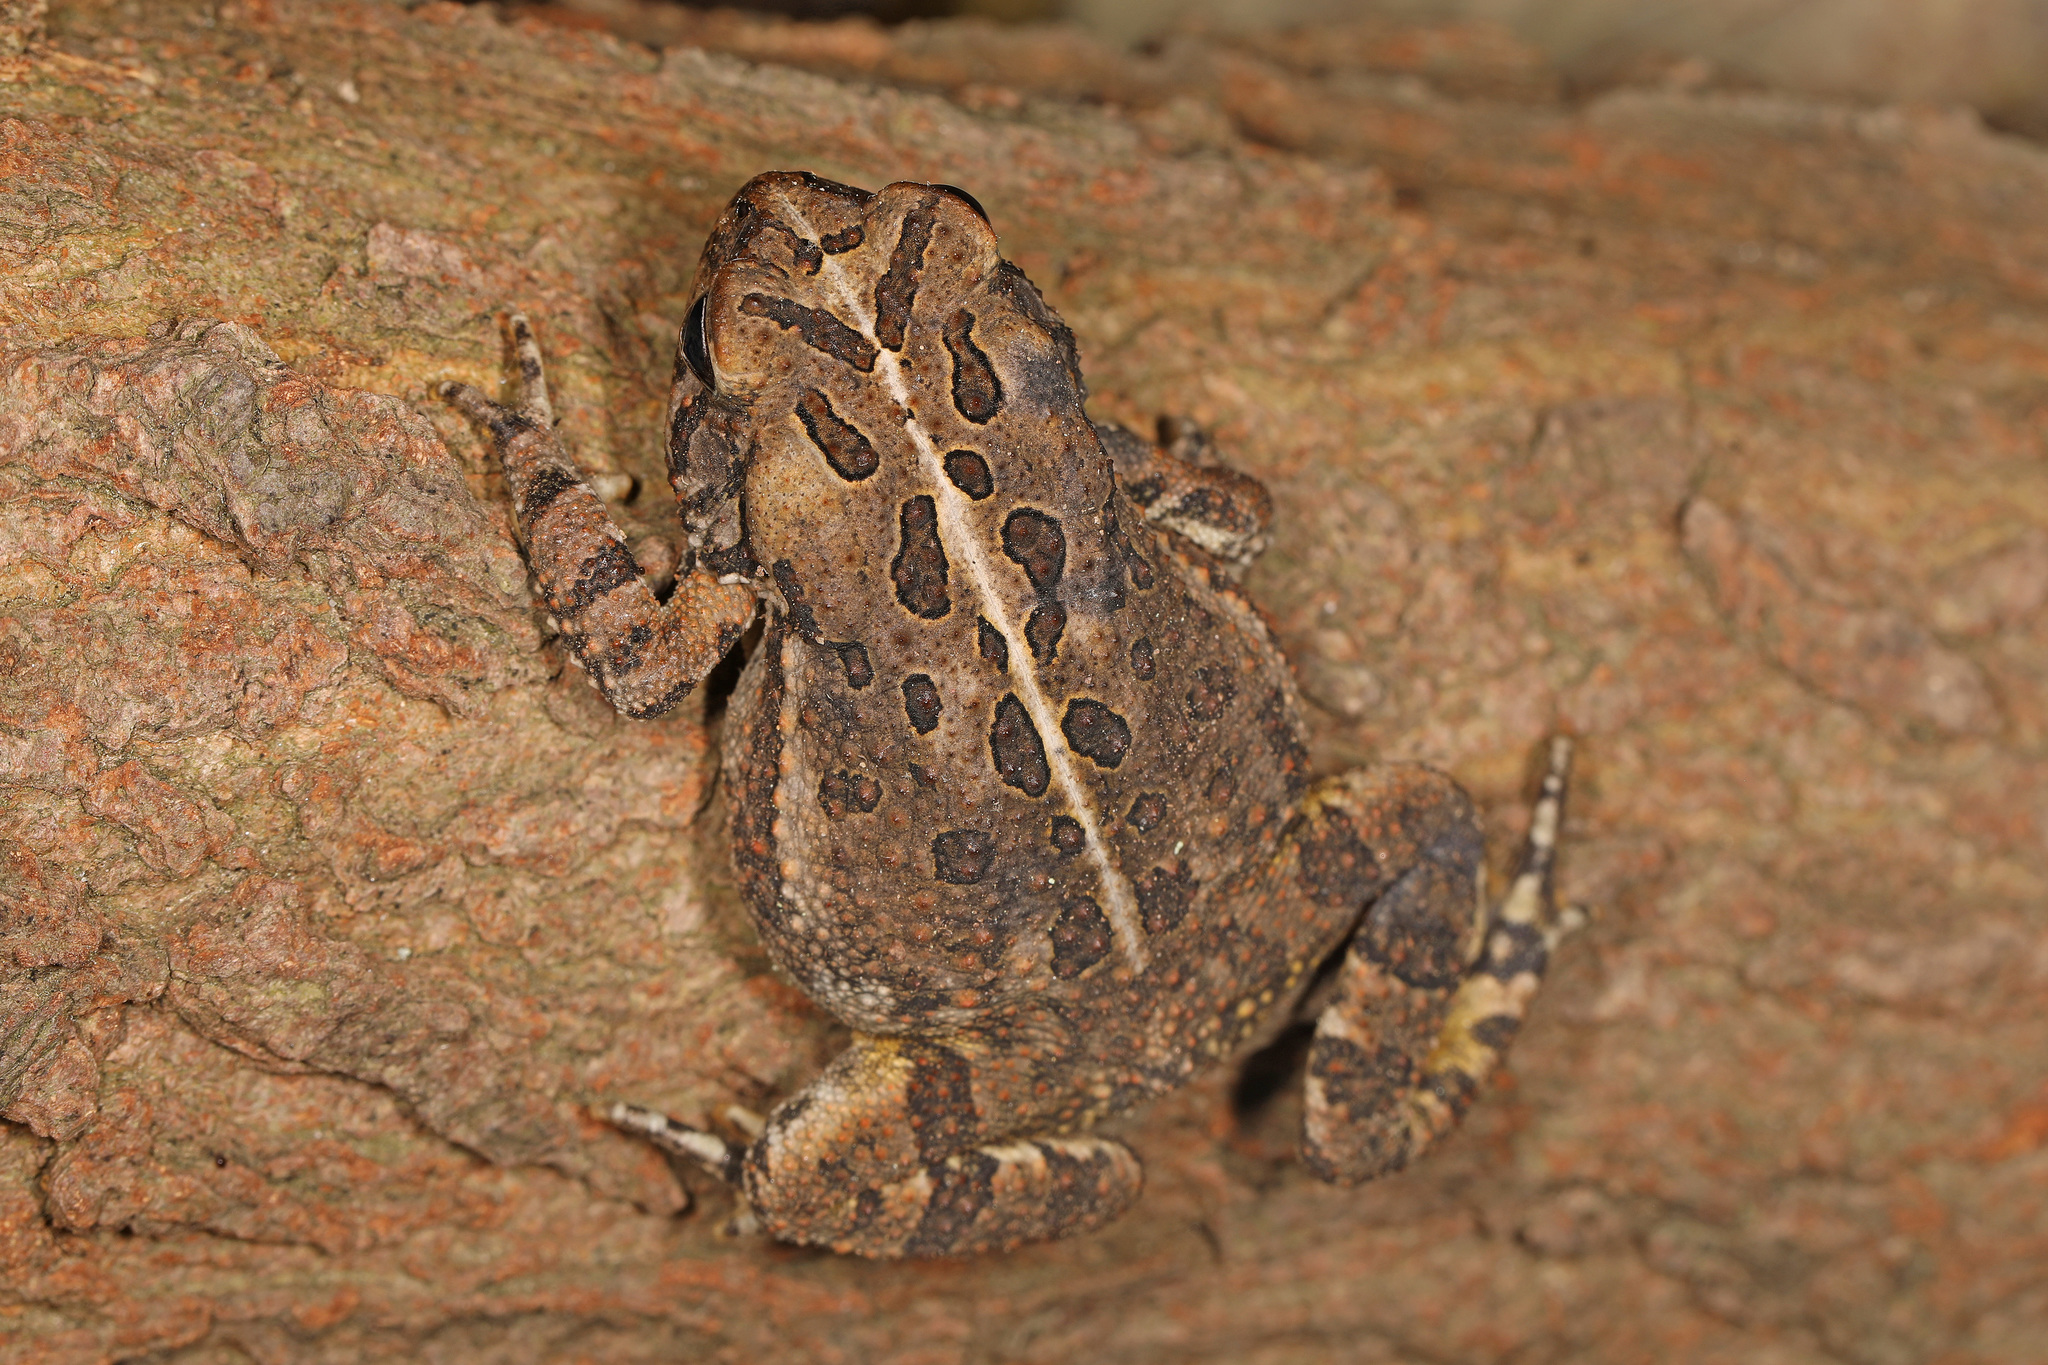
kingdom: Animalia
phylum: Chordata
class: Amphibia
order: Anura
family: Bufonidae
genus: Anaxyrus
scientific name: Anaxyrus fowleri
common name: Fowler's toad
